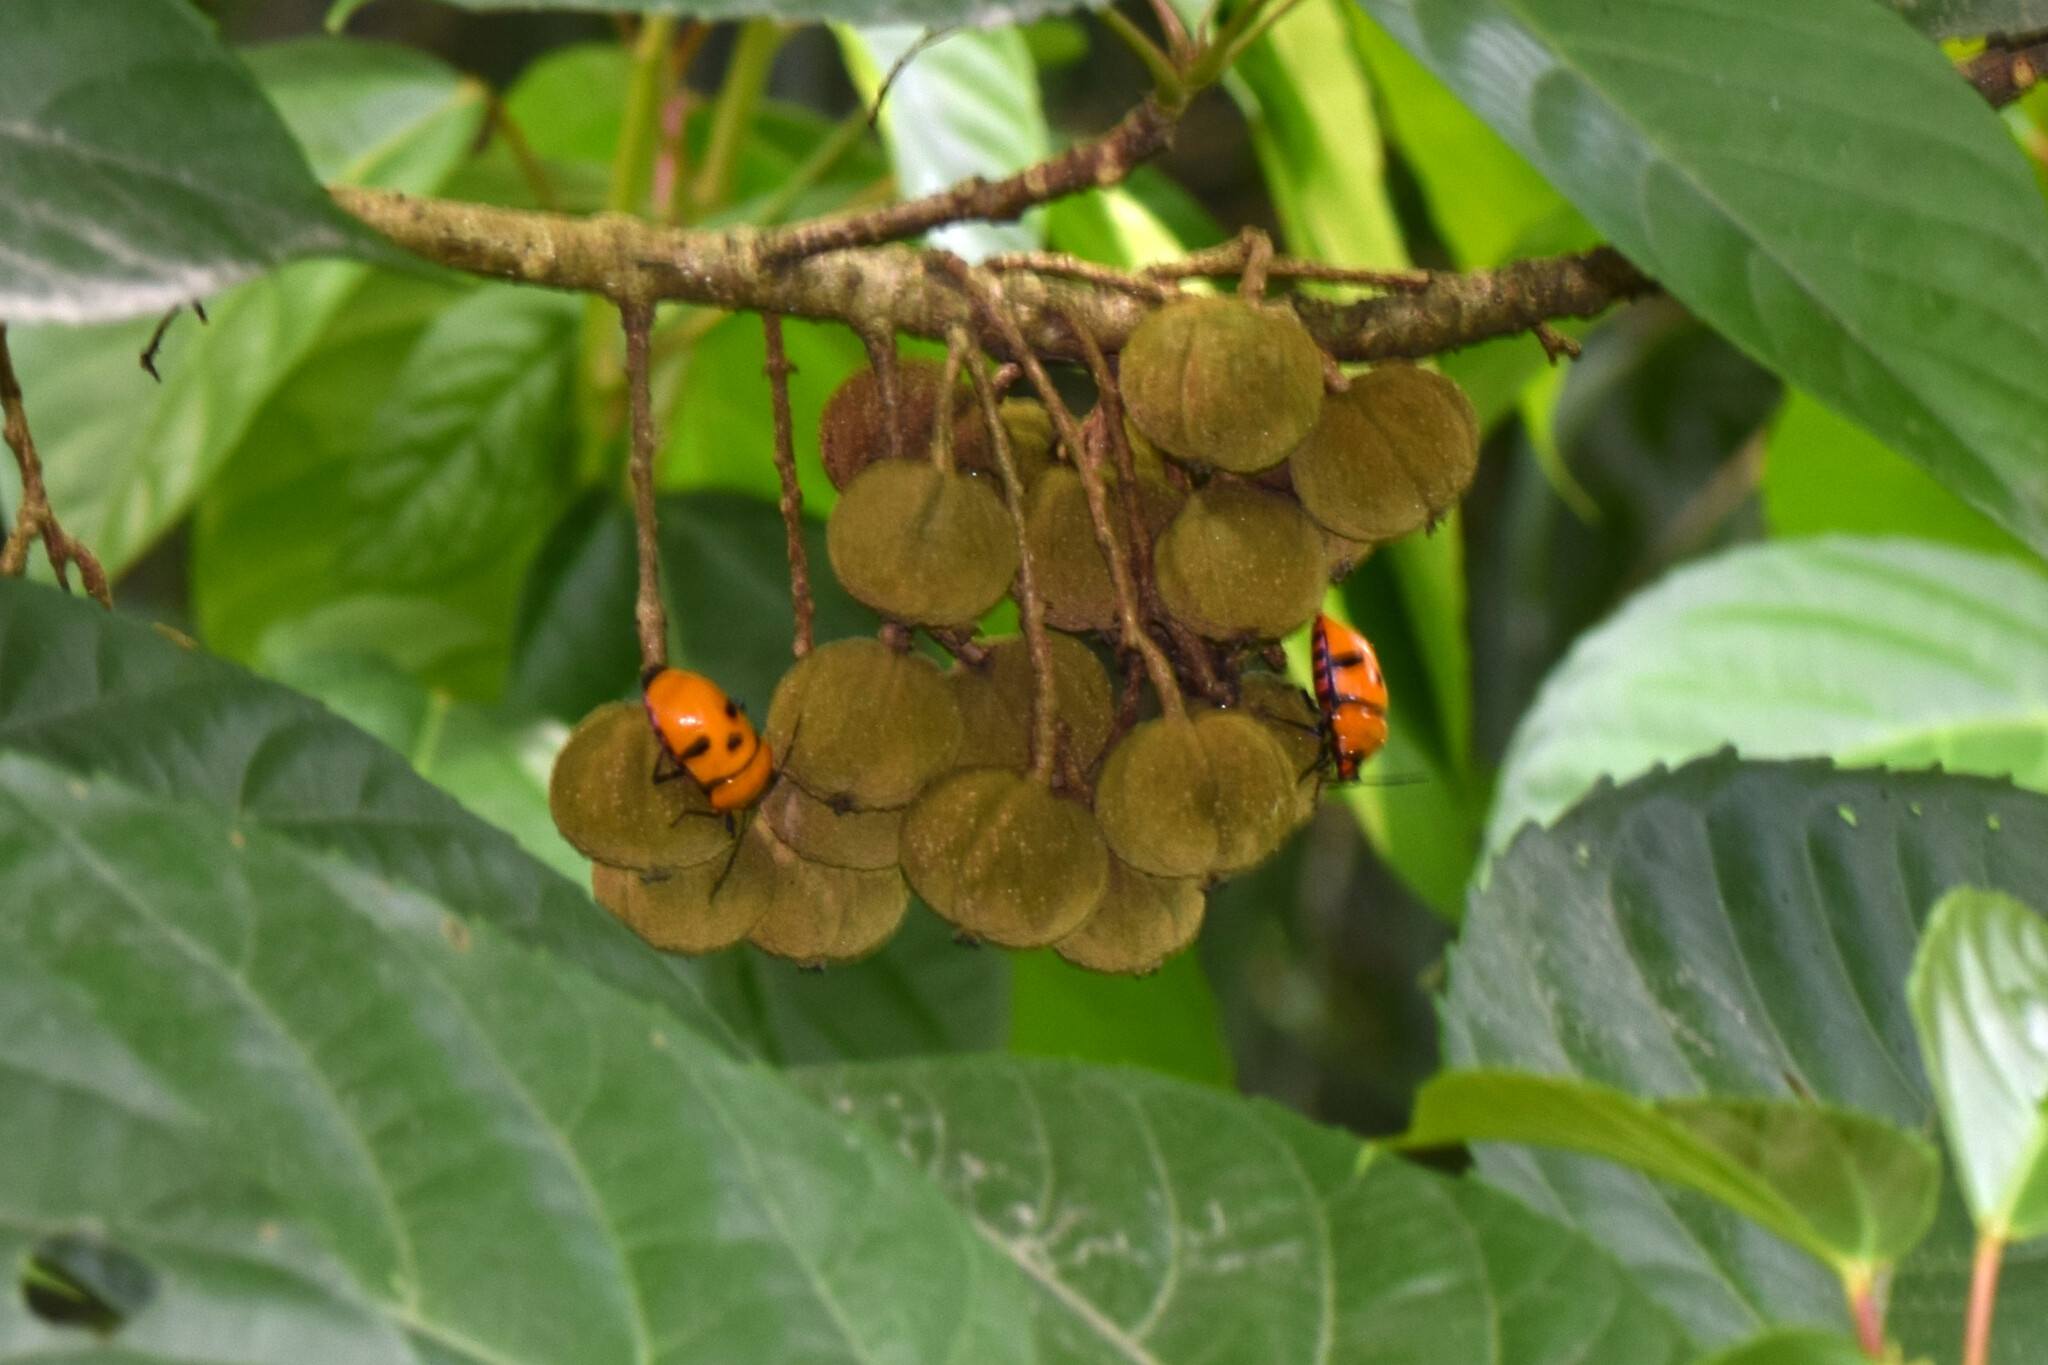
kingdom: Animalia
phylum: Arthropoda
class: Insecta
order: Hemiptera
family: Scutelleridae
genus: Eucorysses
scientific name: Eucorysses grandis
